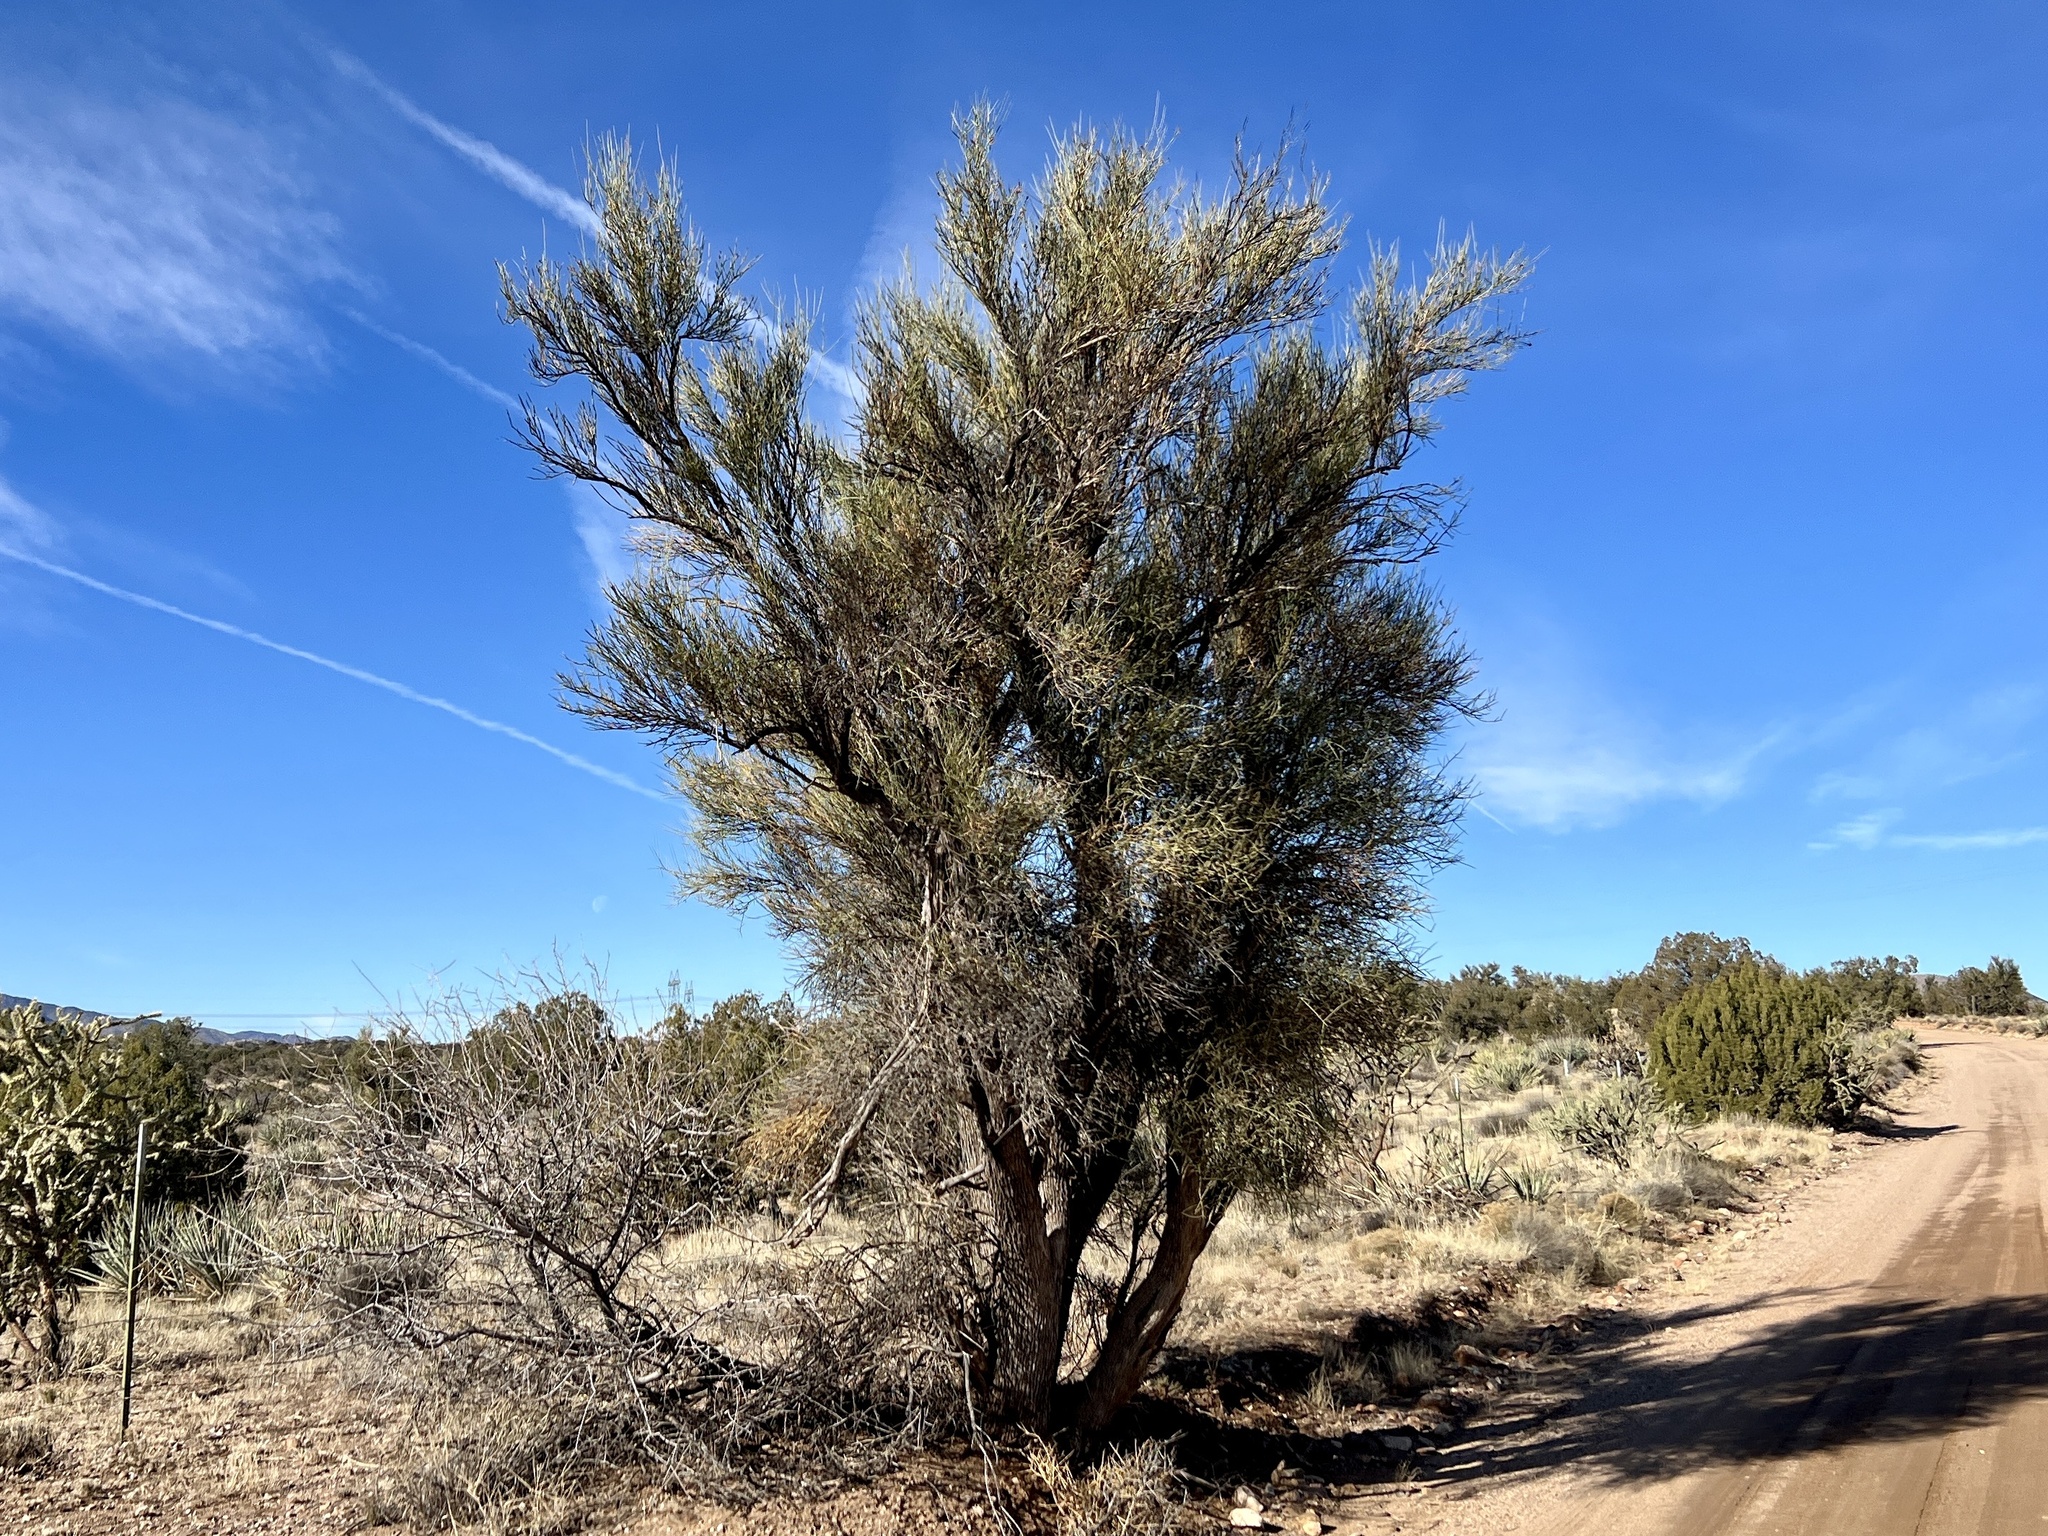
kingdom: Plantae
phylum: Tracheophyta
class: Magnoliopsida
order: Celastrales
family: Celastraceae
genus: Canotia
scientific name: Canotia holacantha
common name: Crucifixion thorns
